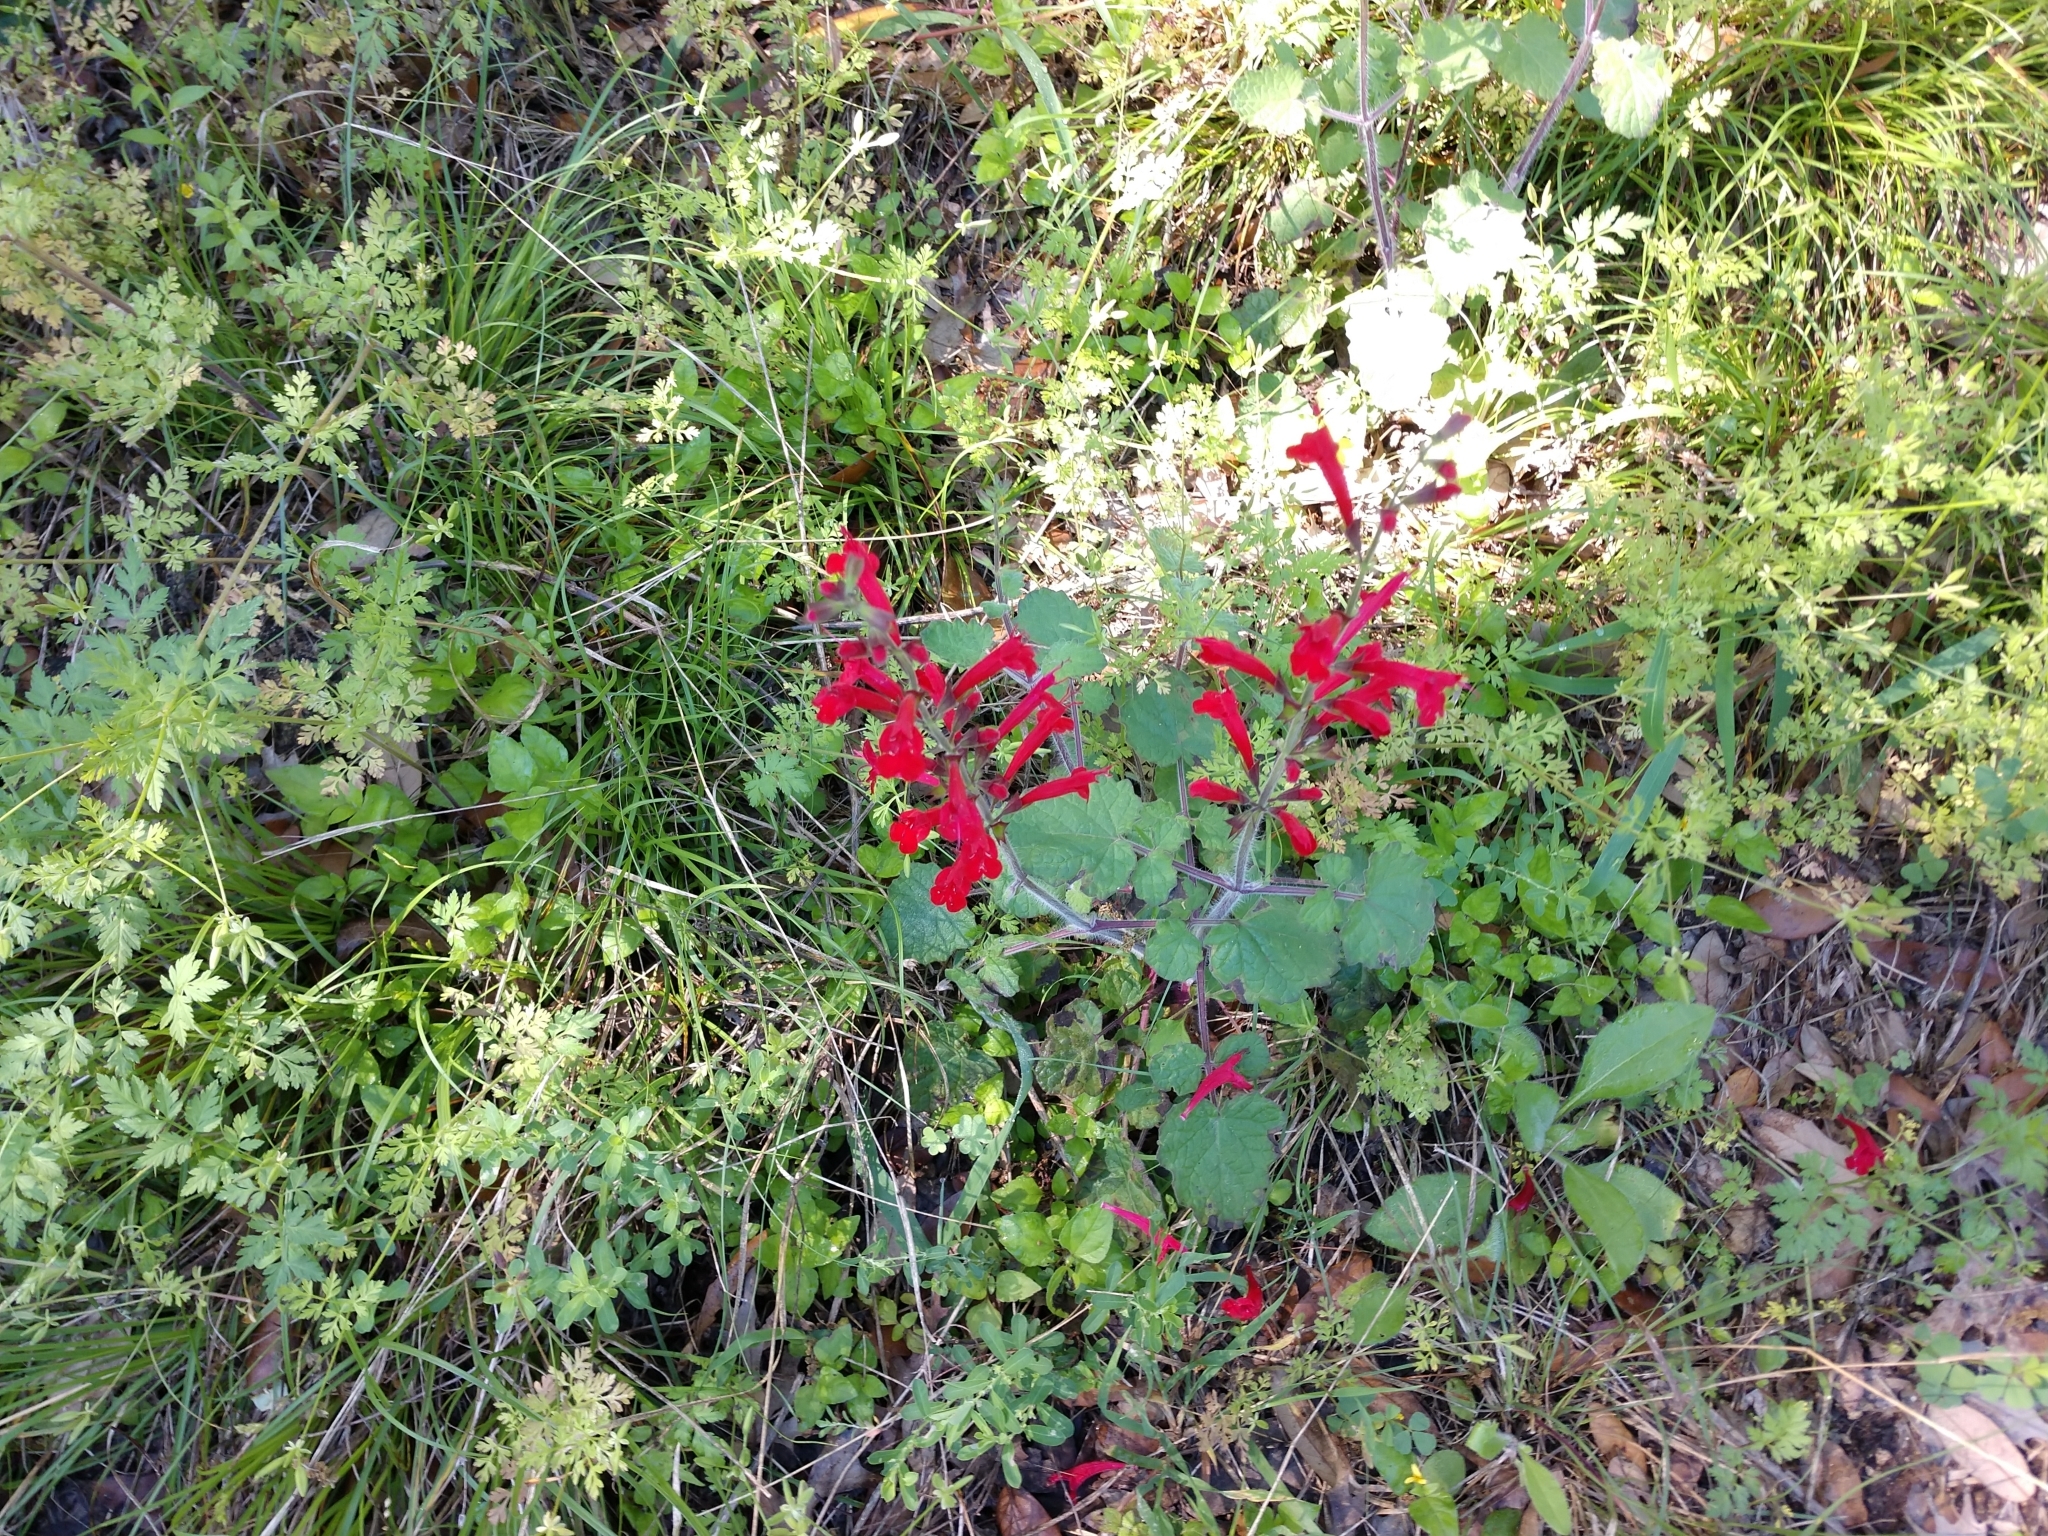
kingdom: Plantae
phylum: Tracheophyta
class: Magnoliopsida
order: Lamiales
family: Lamiaceae
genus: Salvia
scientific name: Salvia roemeriana
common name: Cedar sage
